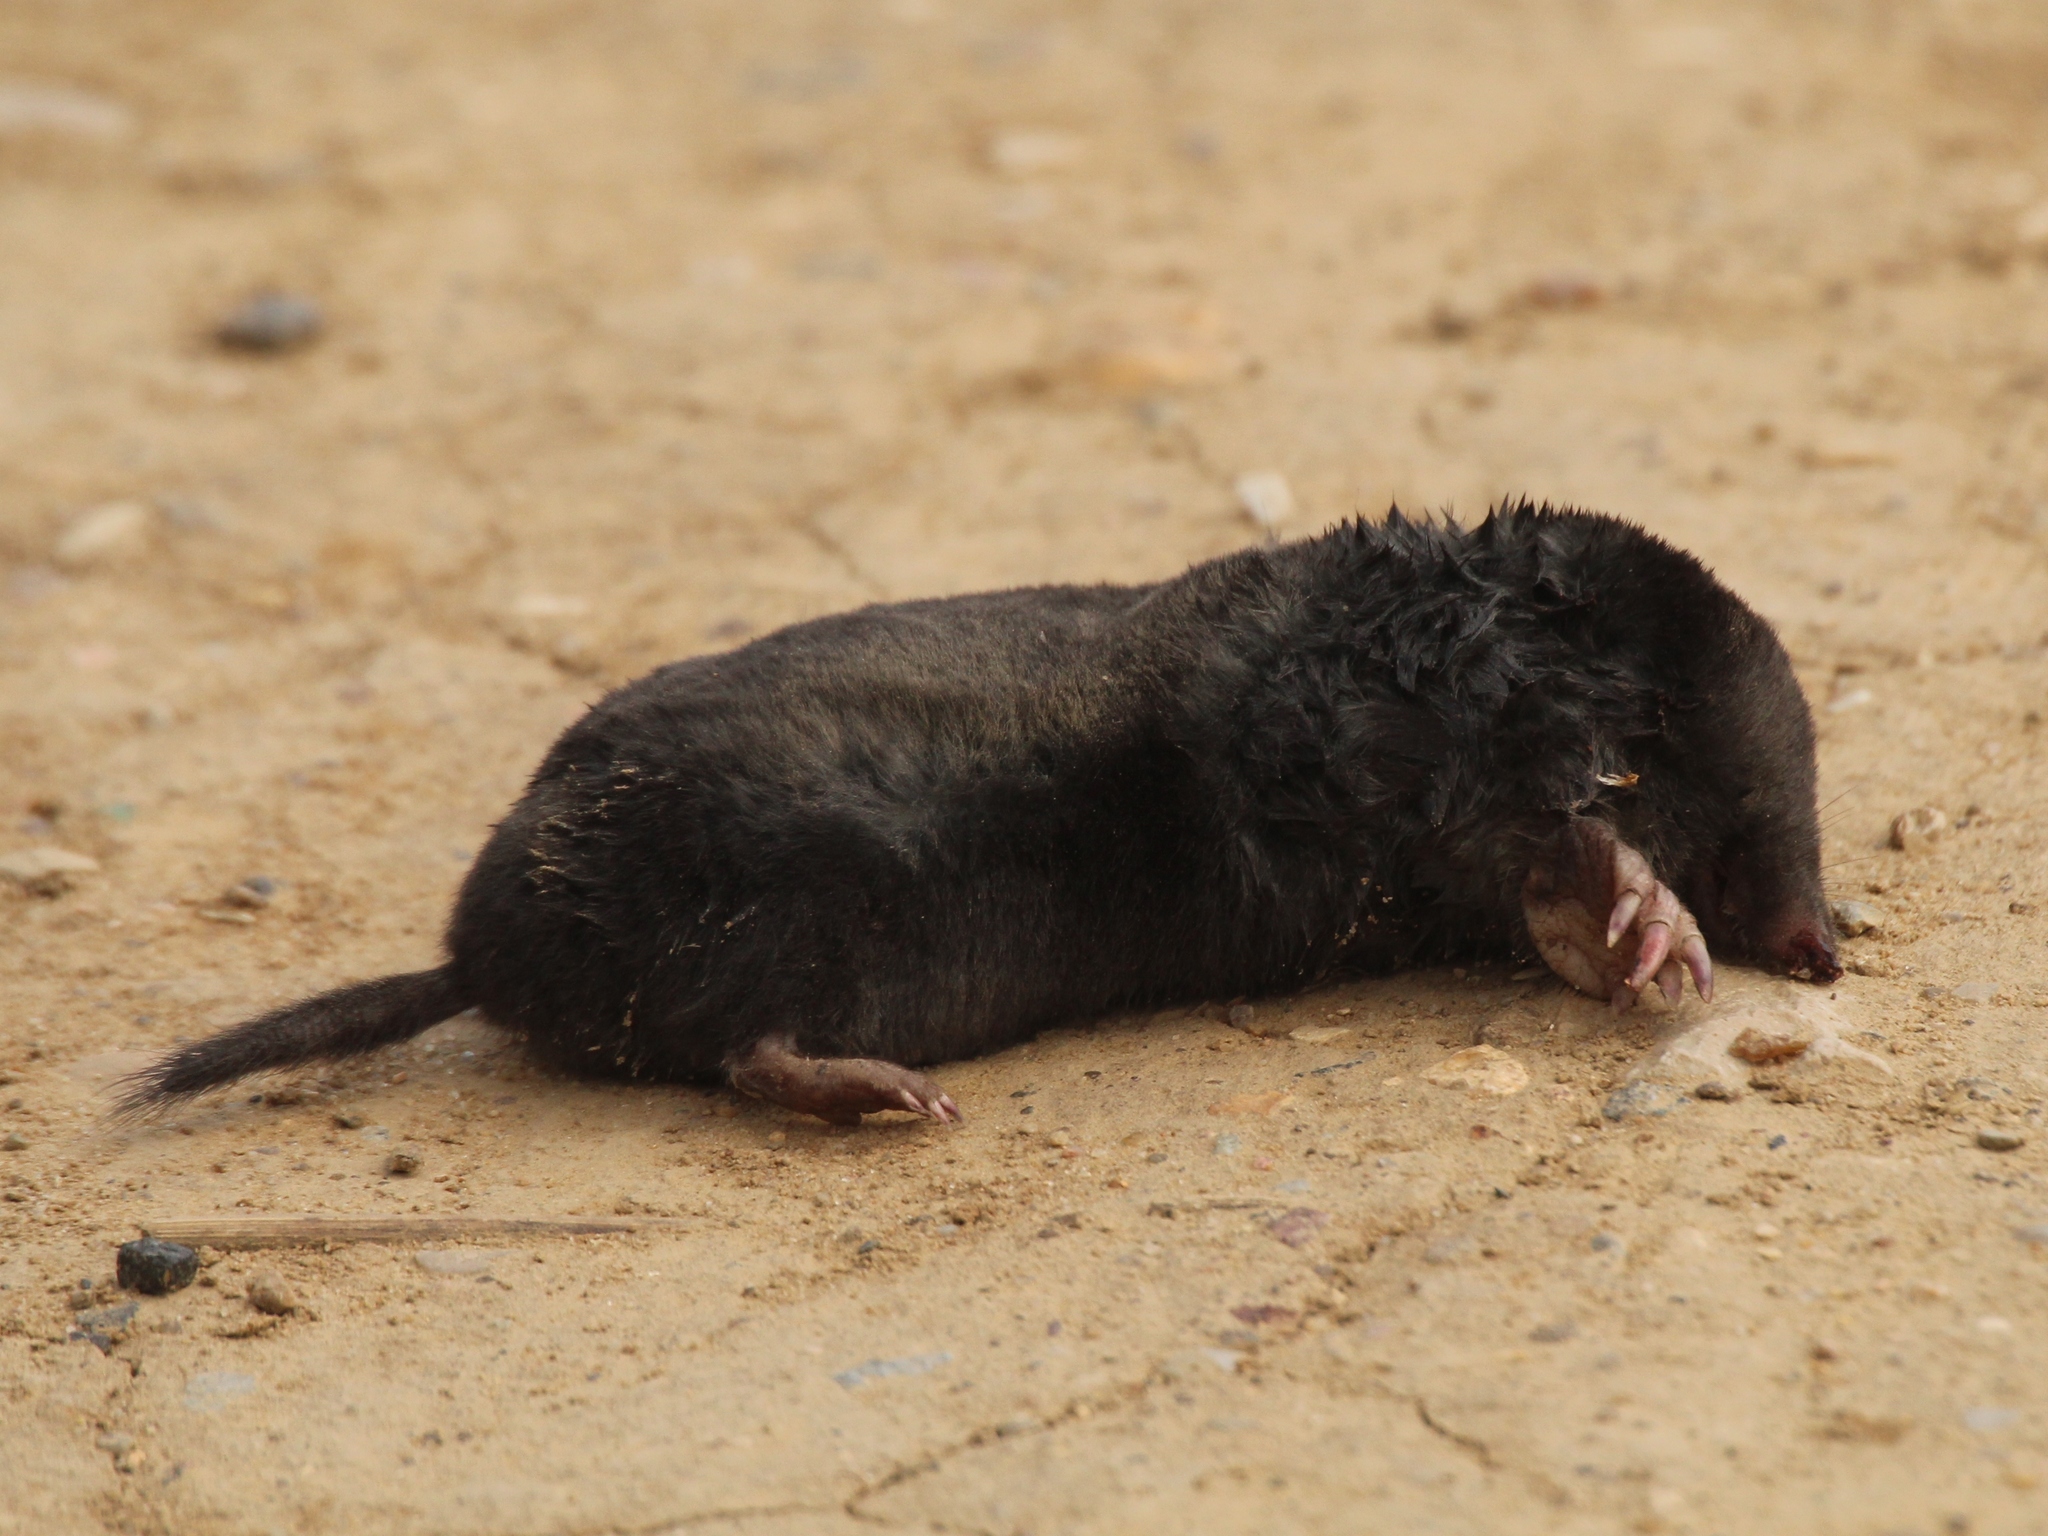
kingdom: Animalia
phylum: Chordata
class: Mammalia
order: Soricomorpha
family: Talpidae
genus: Talpa
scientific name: Talpa europaea
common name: European mole
